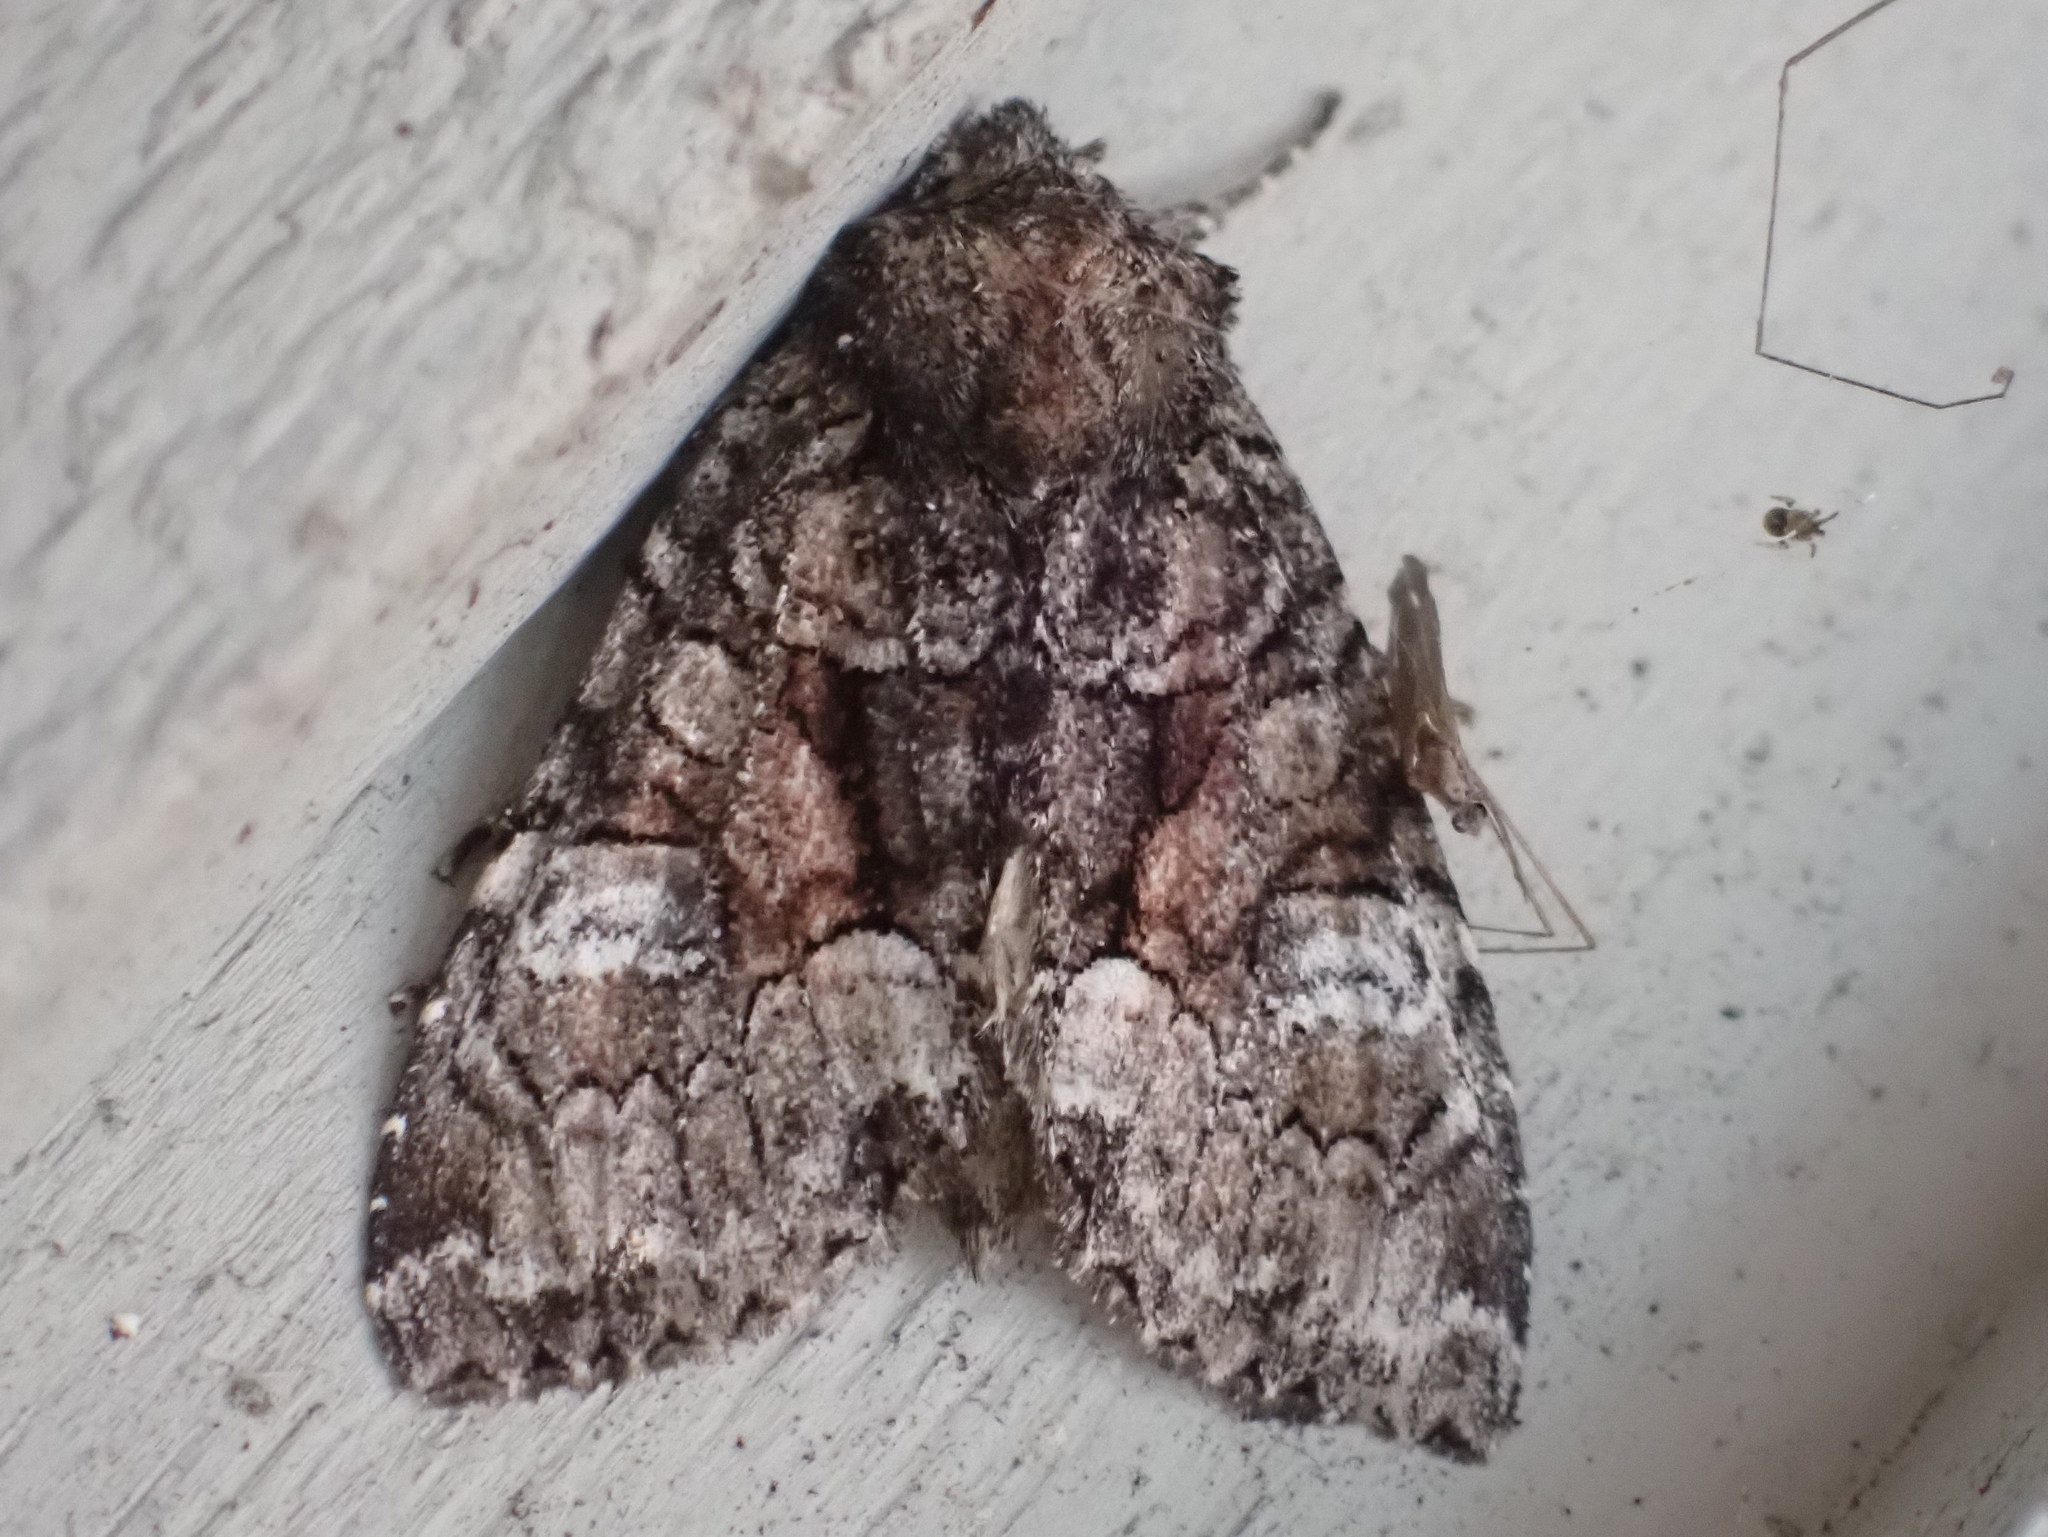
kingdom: Animalia
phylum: Arthropoda
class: Insecta
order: Lepidoptera
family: Noctuidae
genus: Fishia
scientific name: Fishia illocata
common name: Wandering brocade moth
